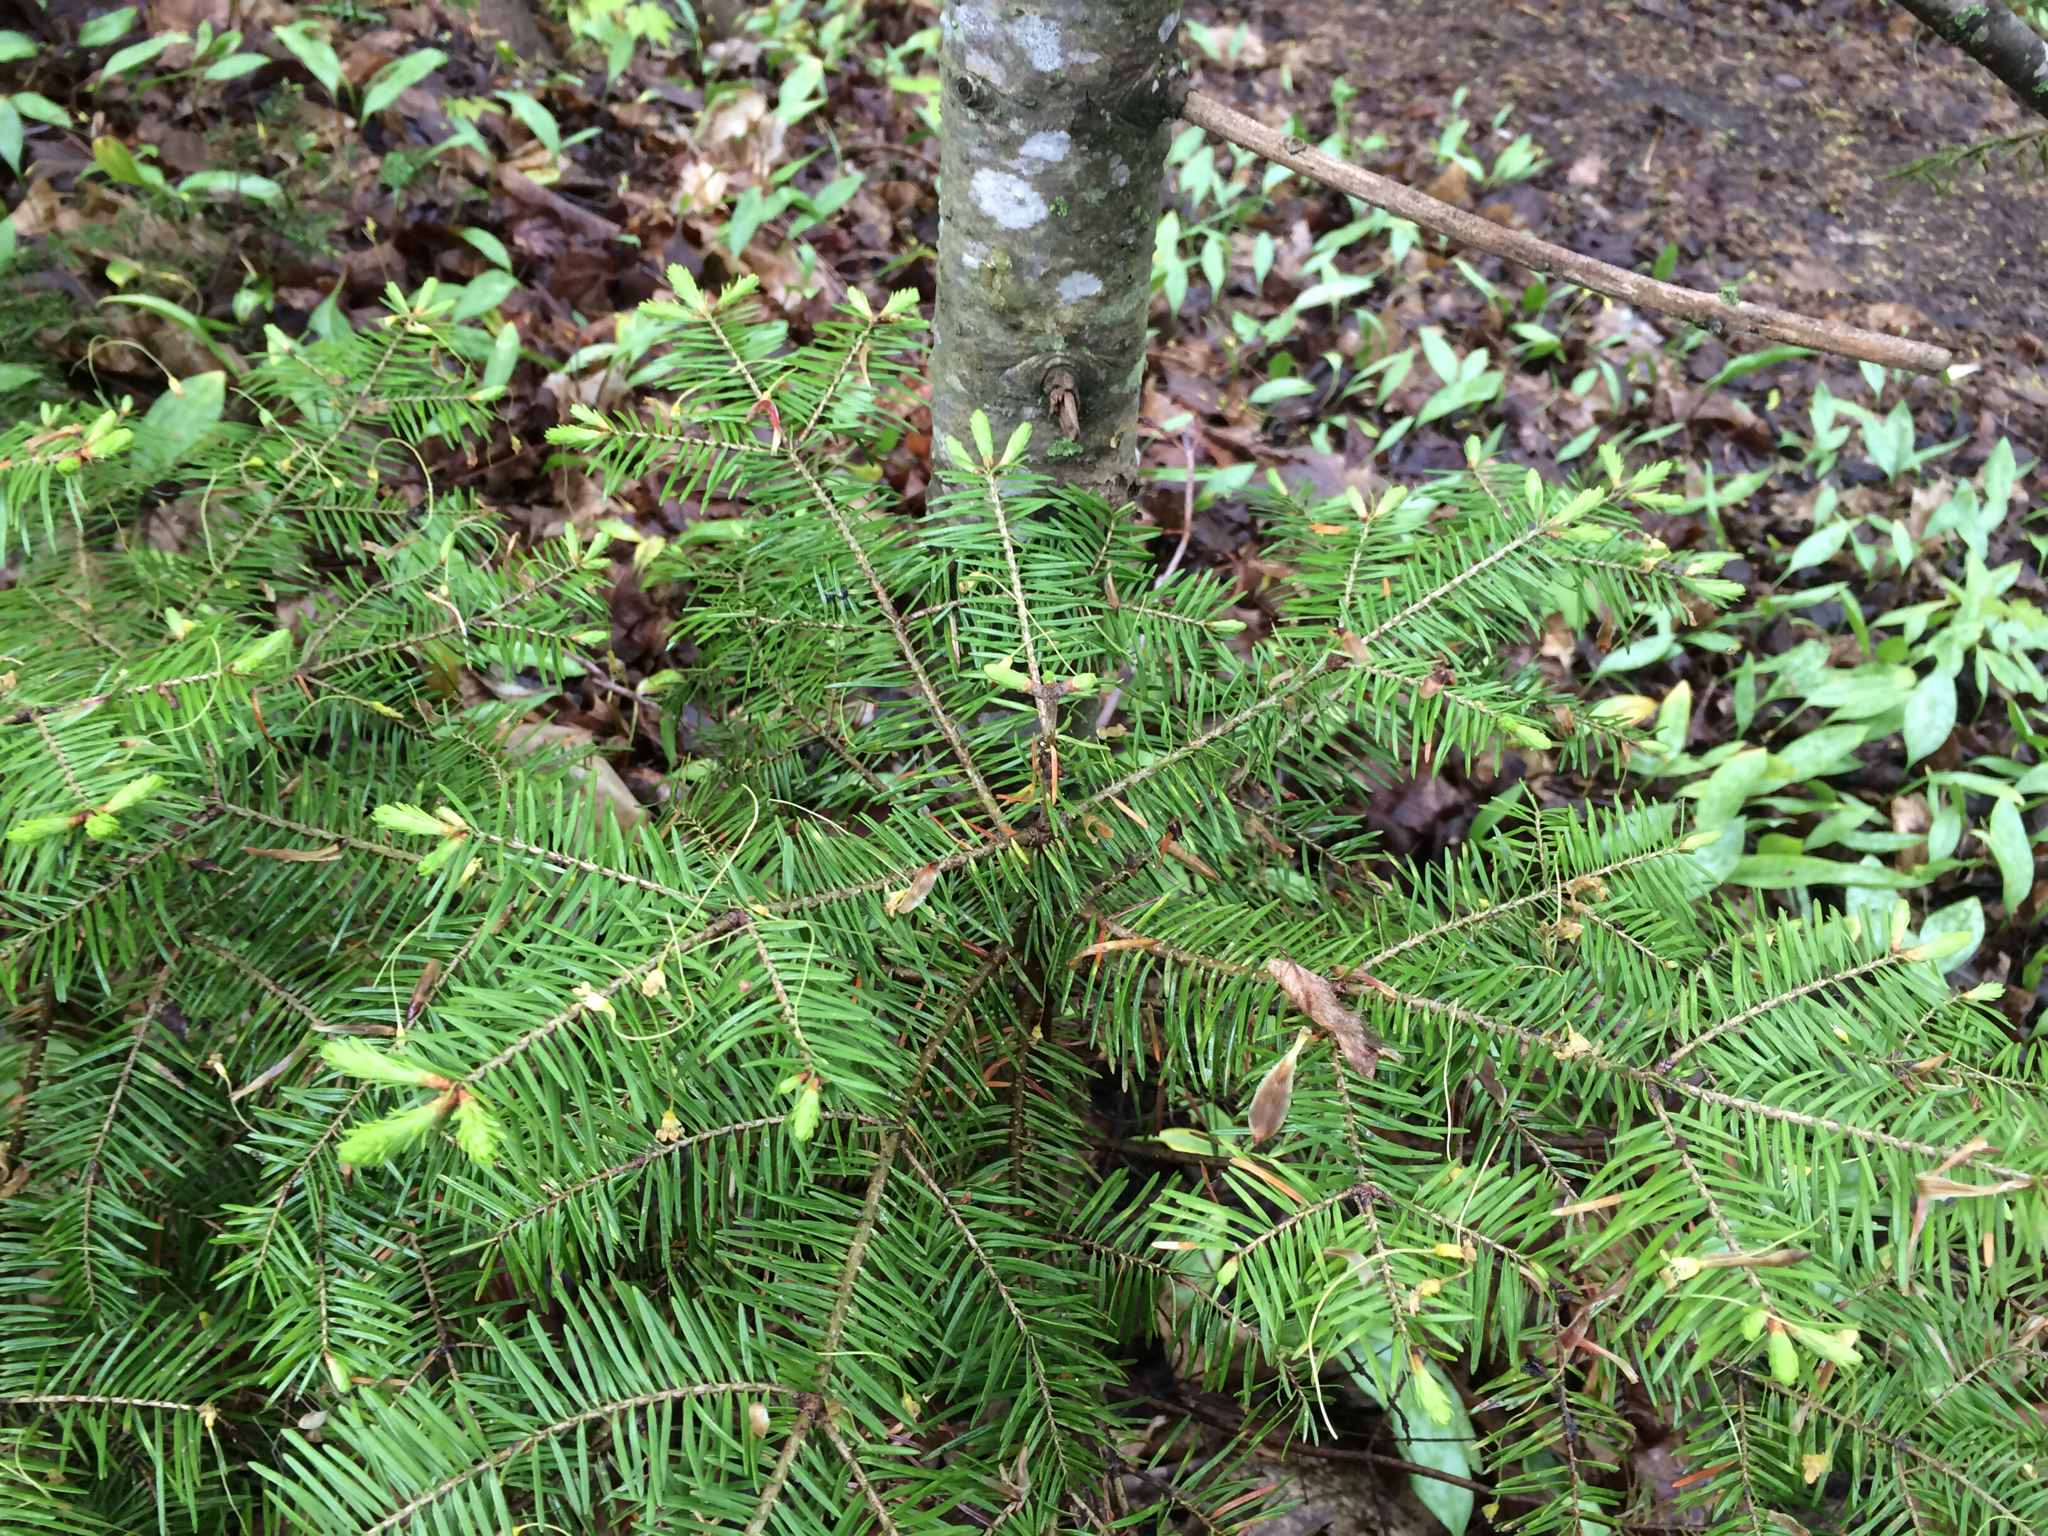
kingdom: Plantae
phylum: Tracheophyta
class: Pinopsida
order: Pinales
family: Pinaceae
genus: Abies
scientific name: Abies balsamea
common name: Balsam fir
